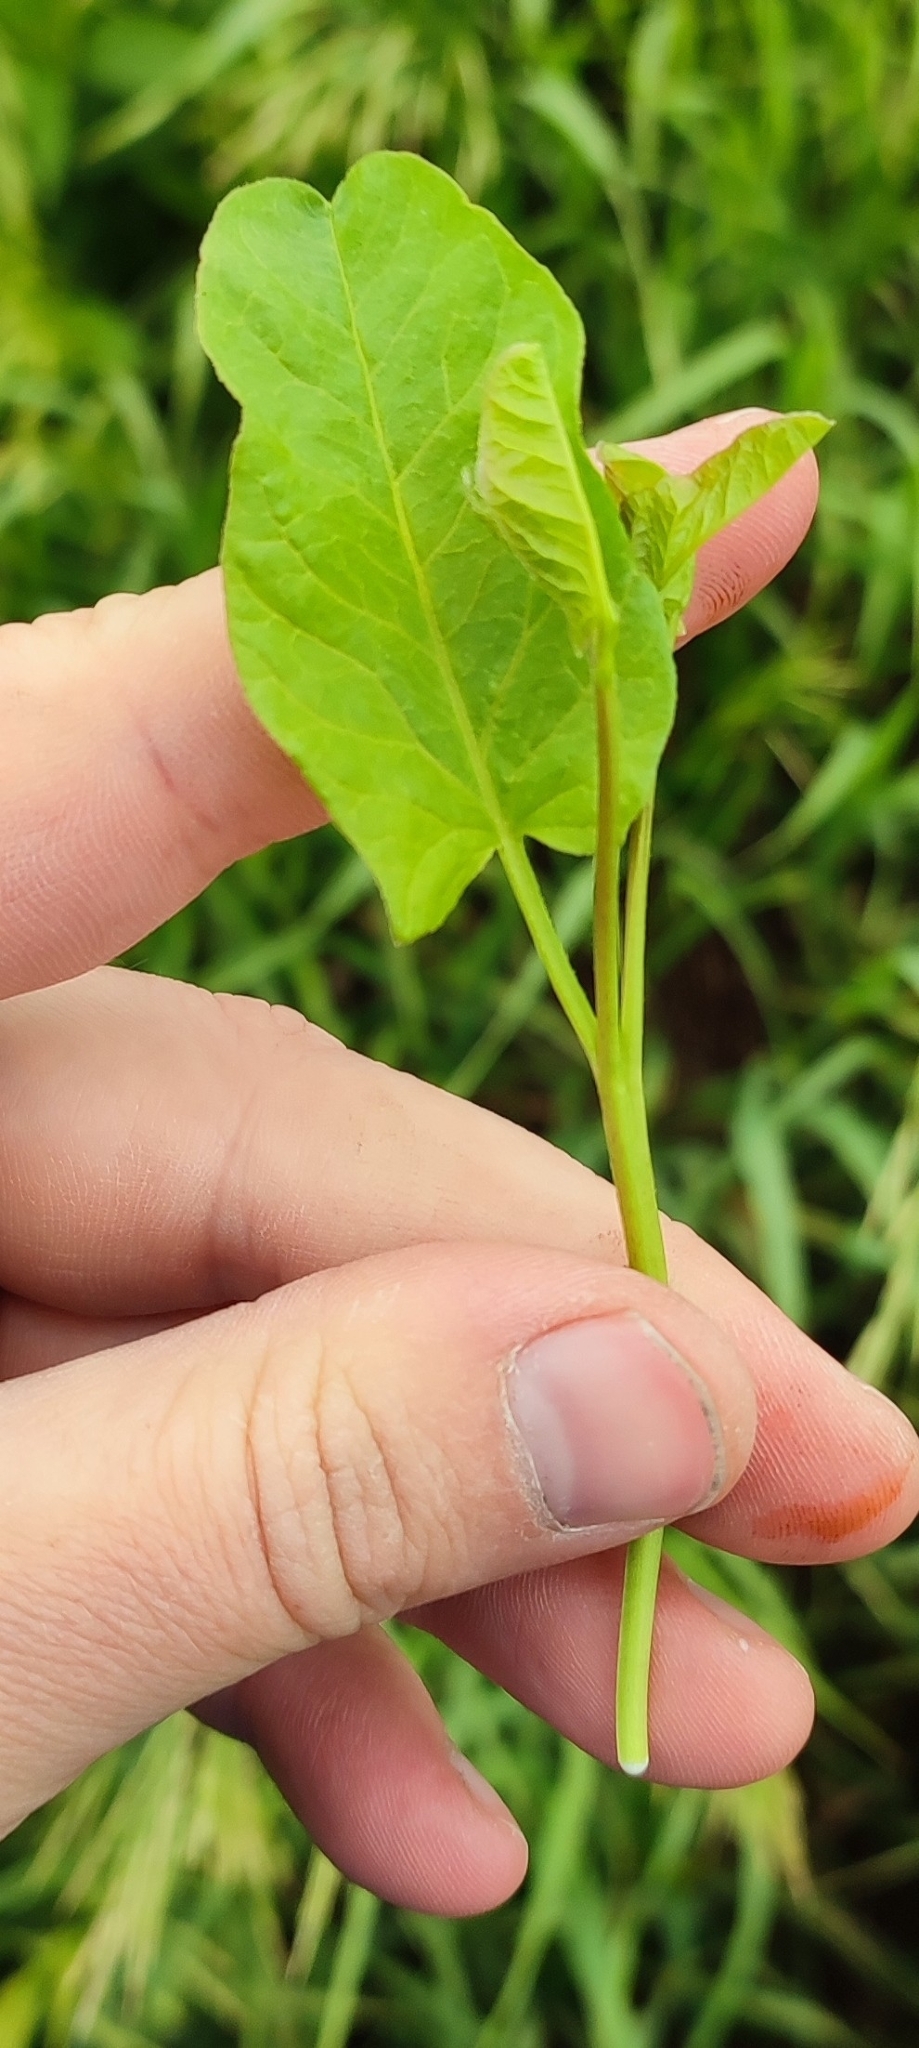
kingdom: Plantae
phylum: Tracheophyta
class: Magnoliopsida
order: Solanales
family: Convolvulaceae
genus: Convolvulus
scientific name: Convolvulus arvensis
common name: Field bindweed
